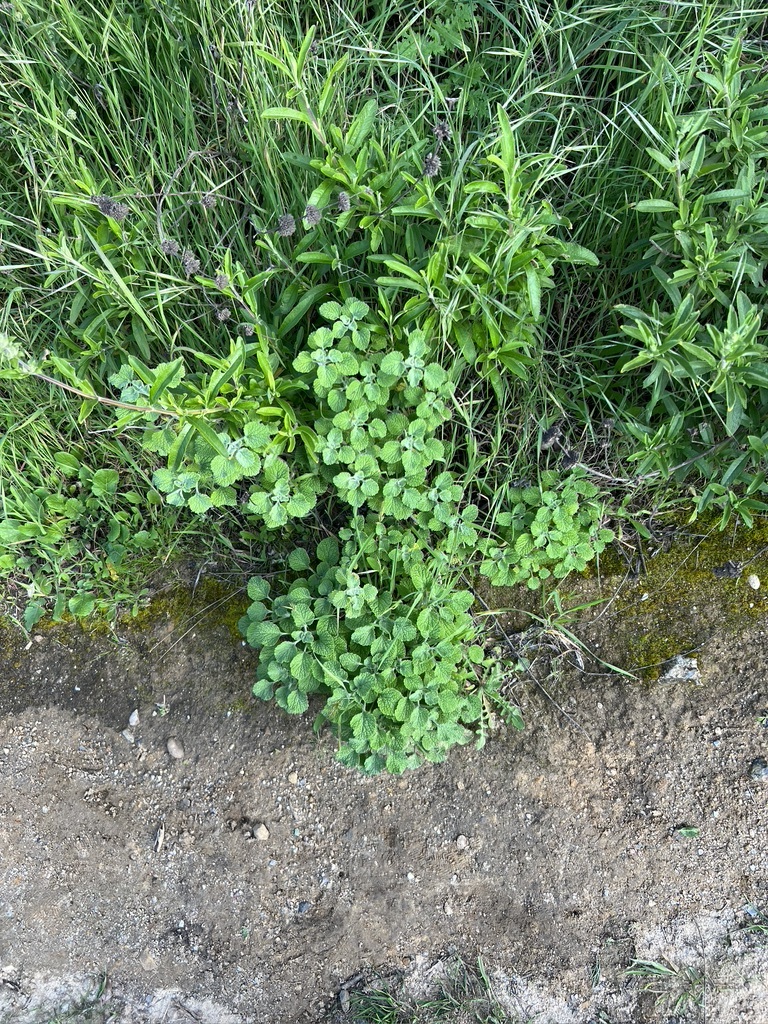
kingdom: Plantae
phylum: Tracheophyta
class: Magnoliopsida
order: Lamiales
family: Lamiaceae
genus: Marrubium
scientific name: Marrubium vulgare
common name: Horehound
